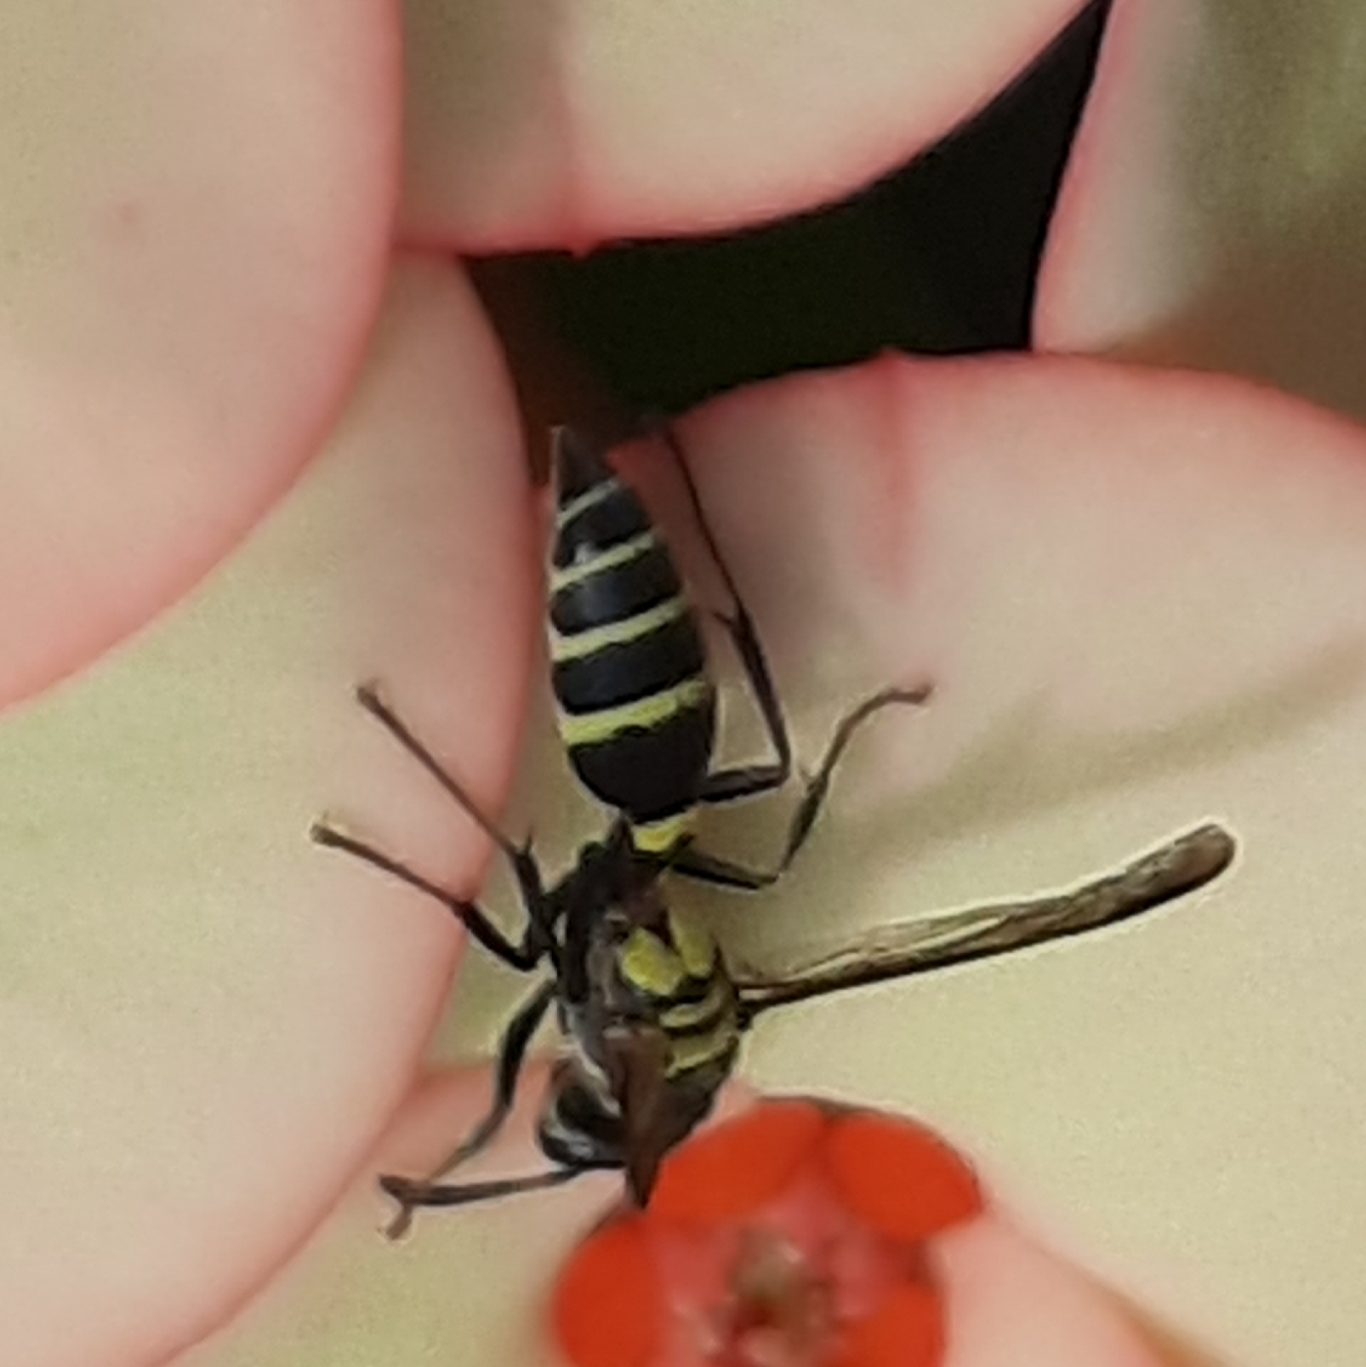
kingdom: Animalia
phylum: Arthropoda
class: Insecta
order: Hymenoptera
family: Eumenidae
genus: Polybia
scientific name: Polybia occidentalis
